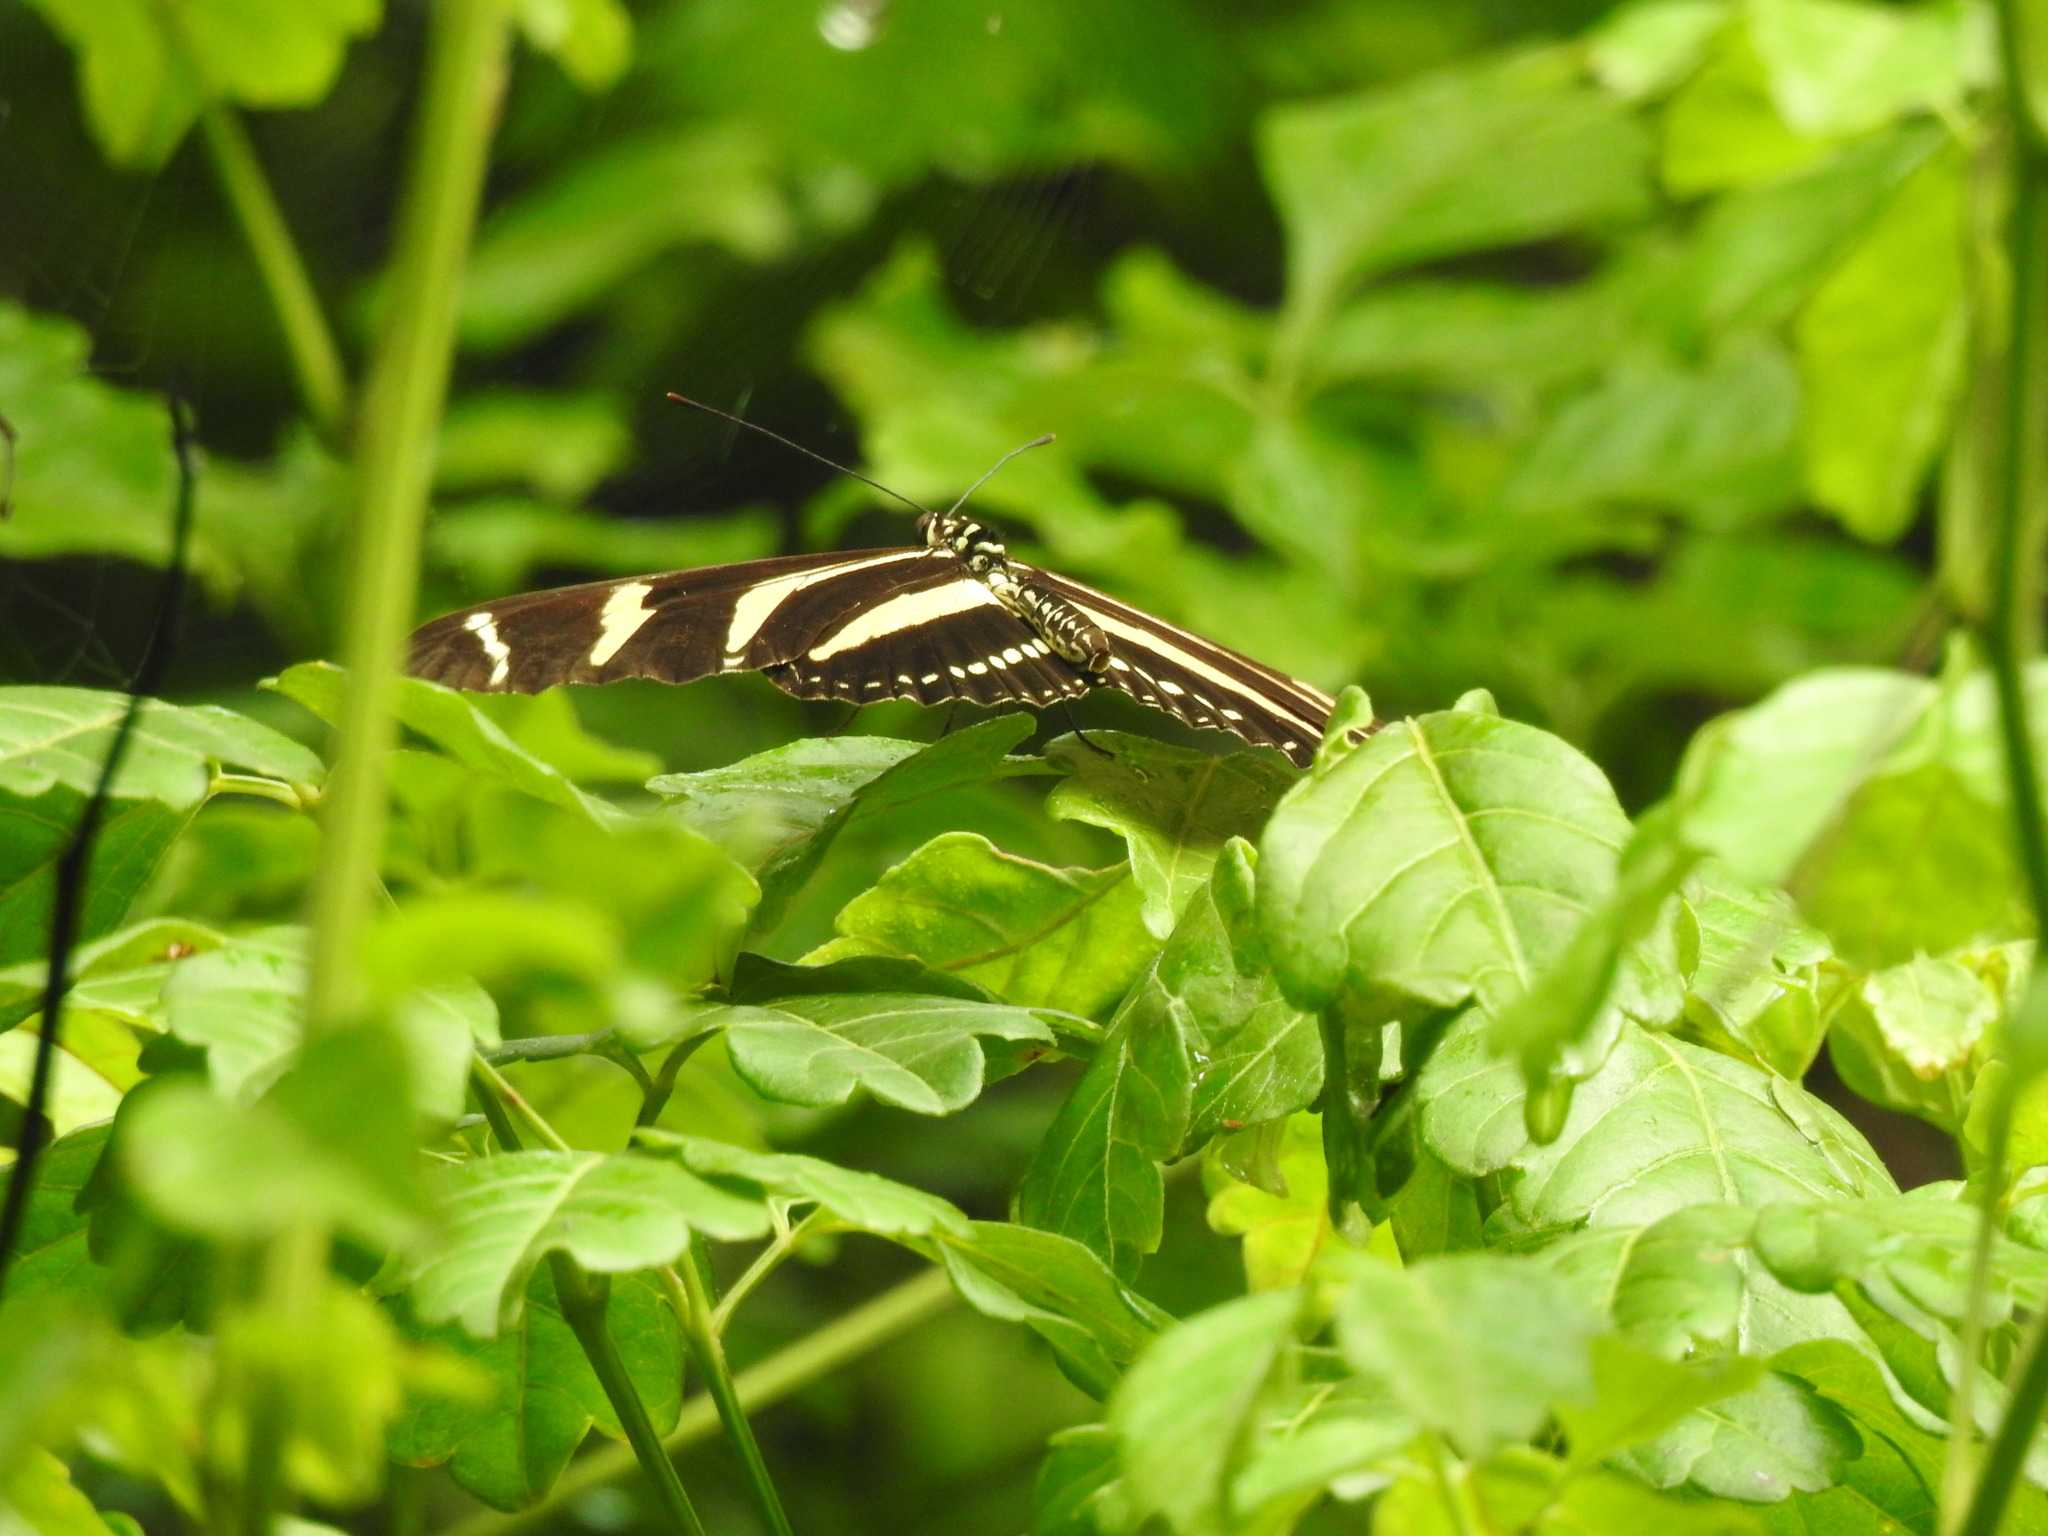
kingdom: Animalia
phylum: Arthropoda
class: Insecta
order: Lepidoptera
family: Nymphalidae
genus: Heliconius
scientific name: Heliconius charithonia
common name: Zebra long wing
